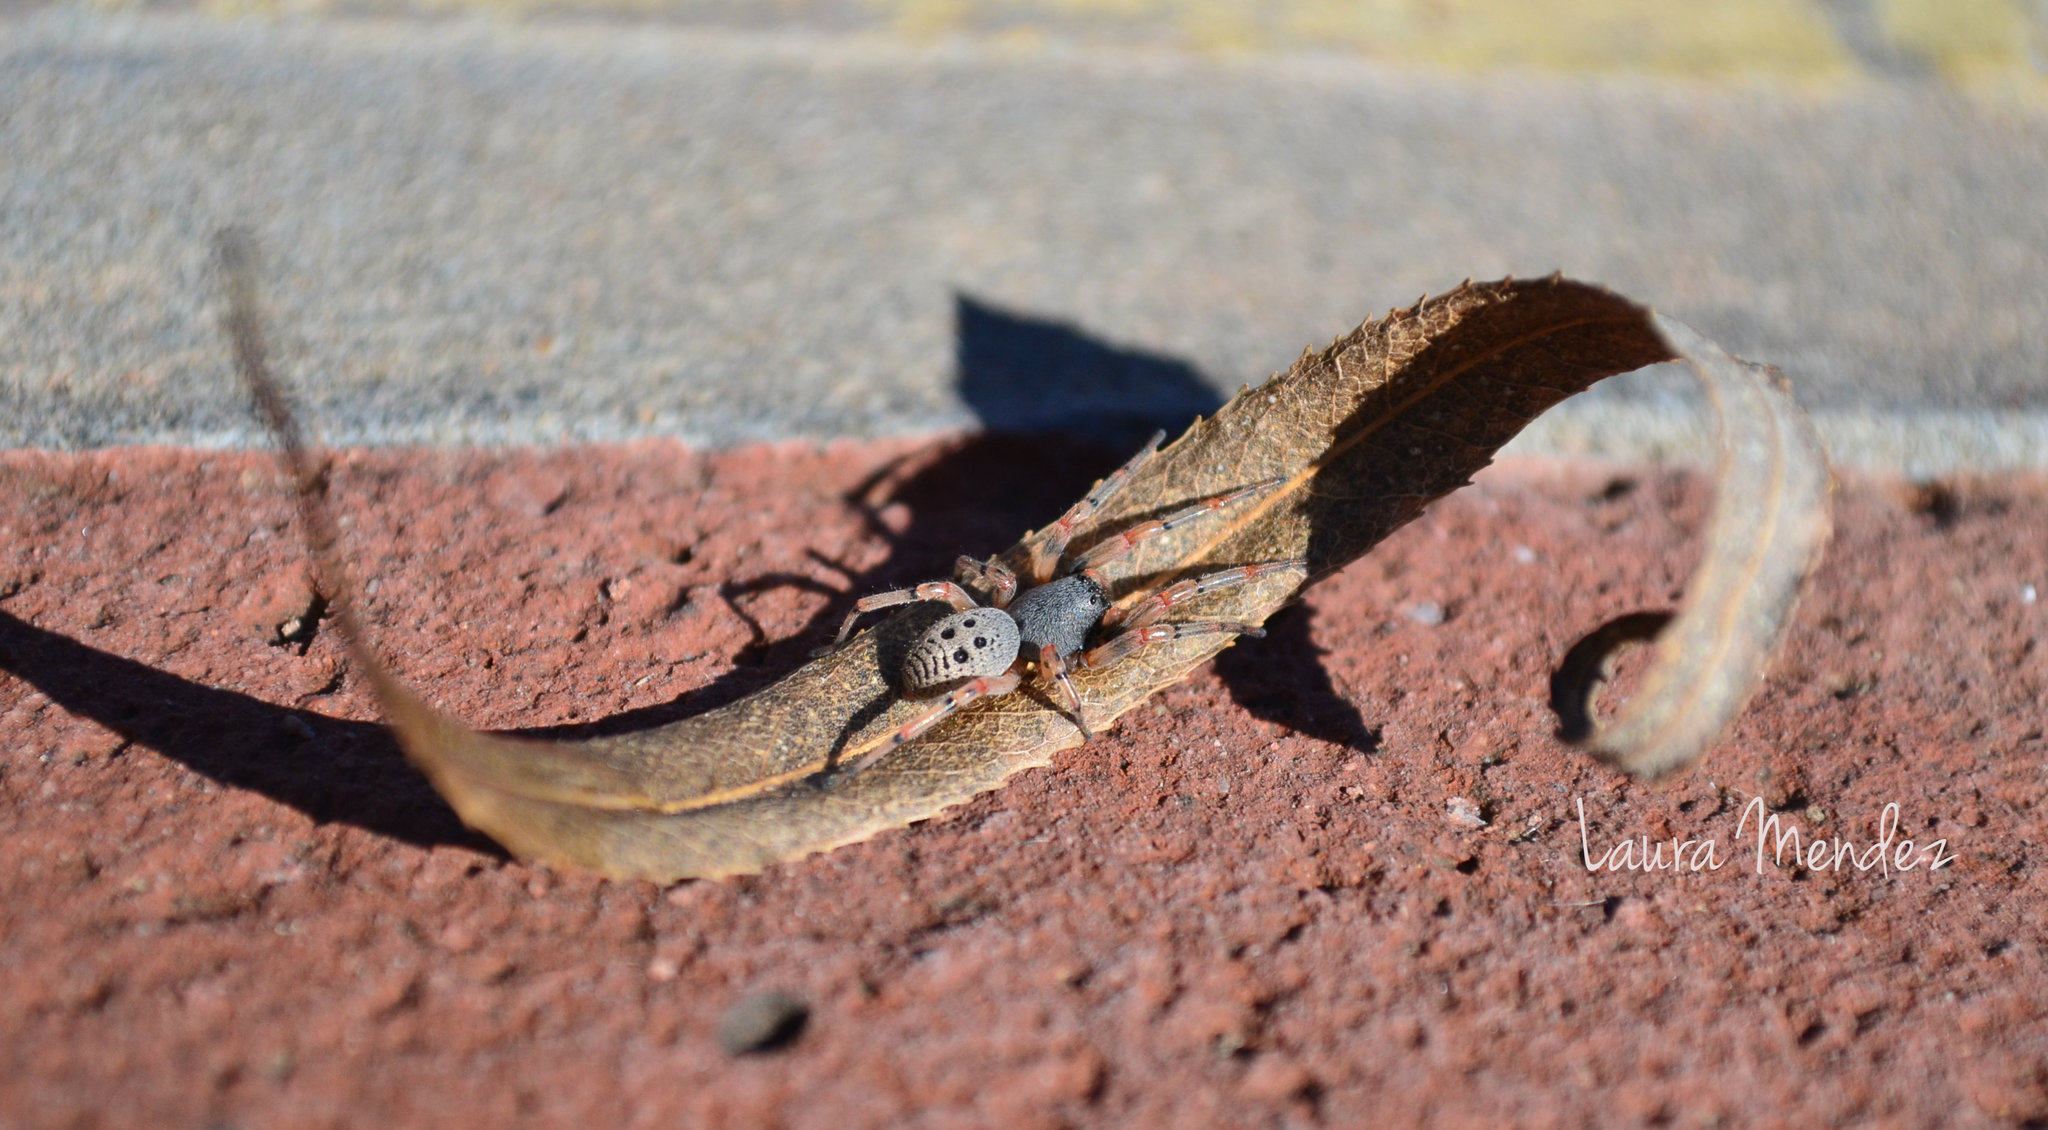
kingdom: Animalia
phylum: Arthropoda
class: Arachnida
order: Araneae
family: Trachelidae
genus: Trachelopachys
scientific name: Trachelopachys
